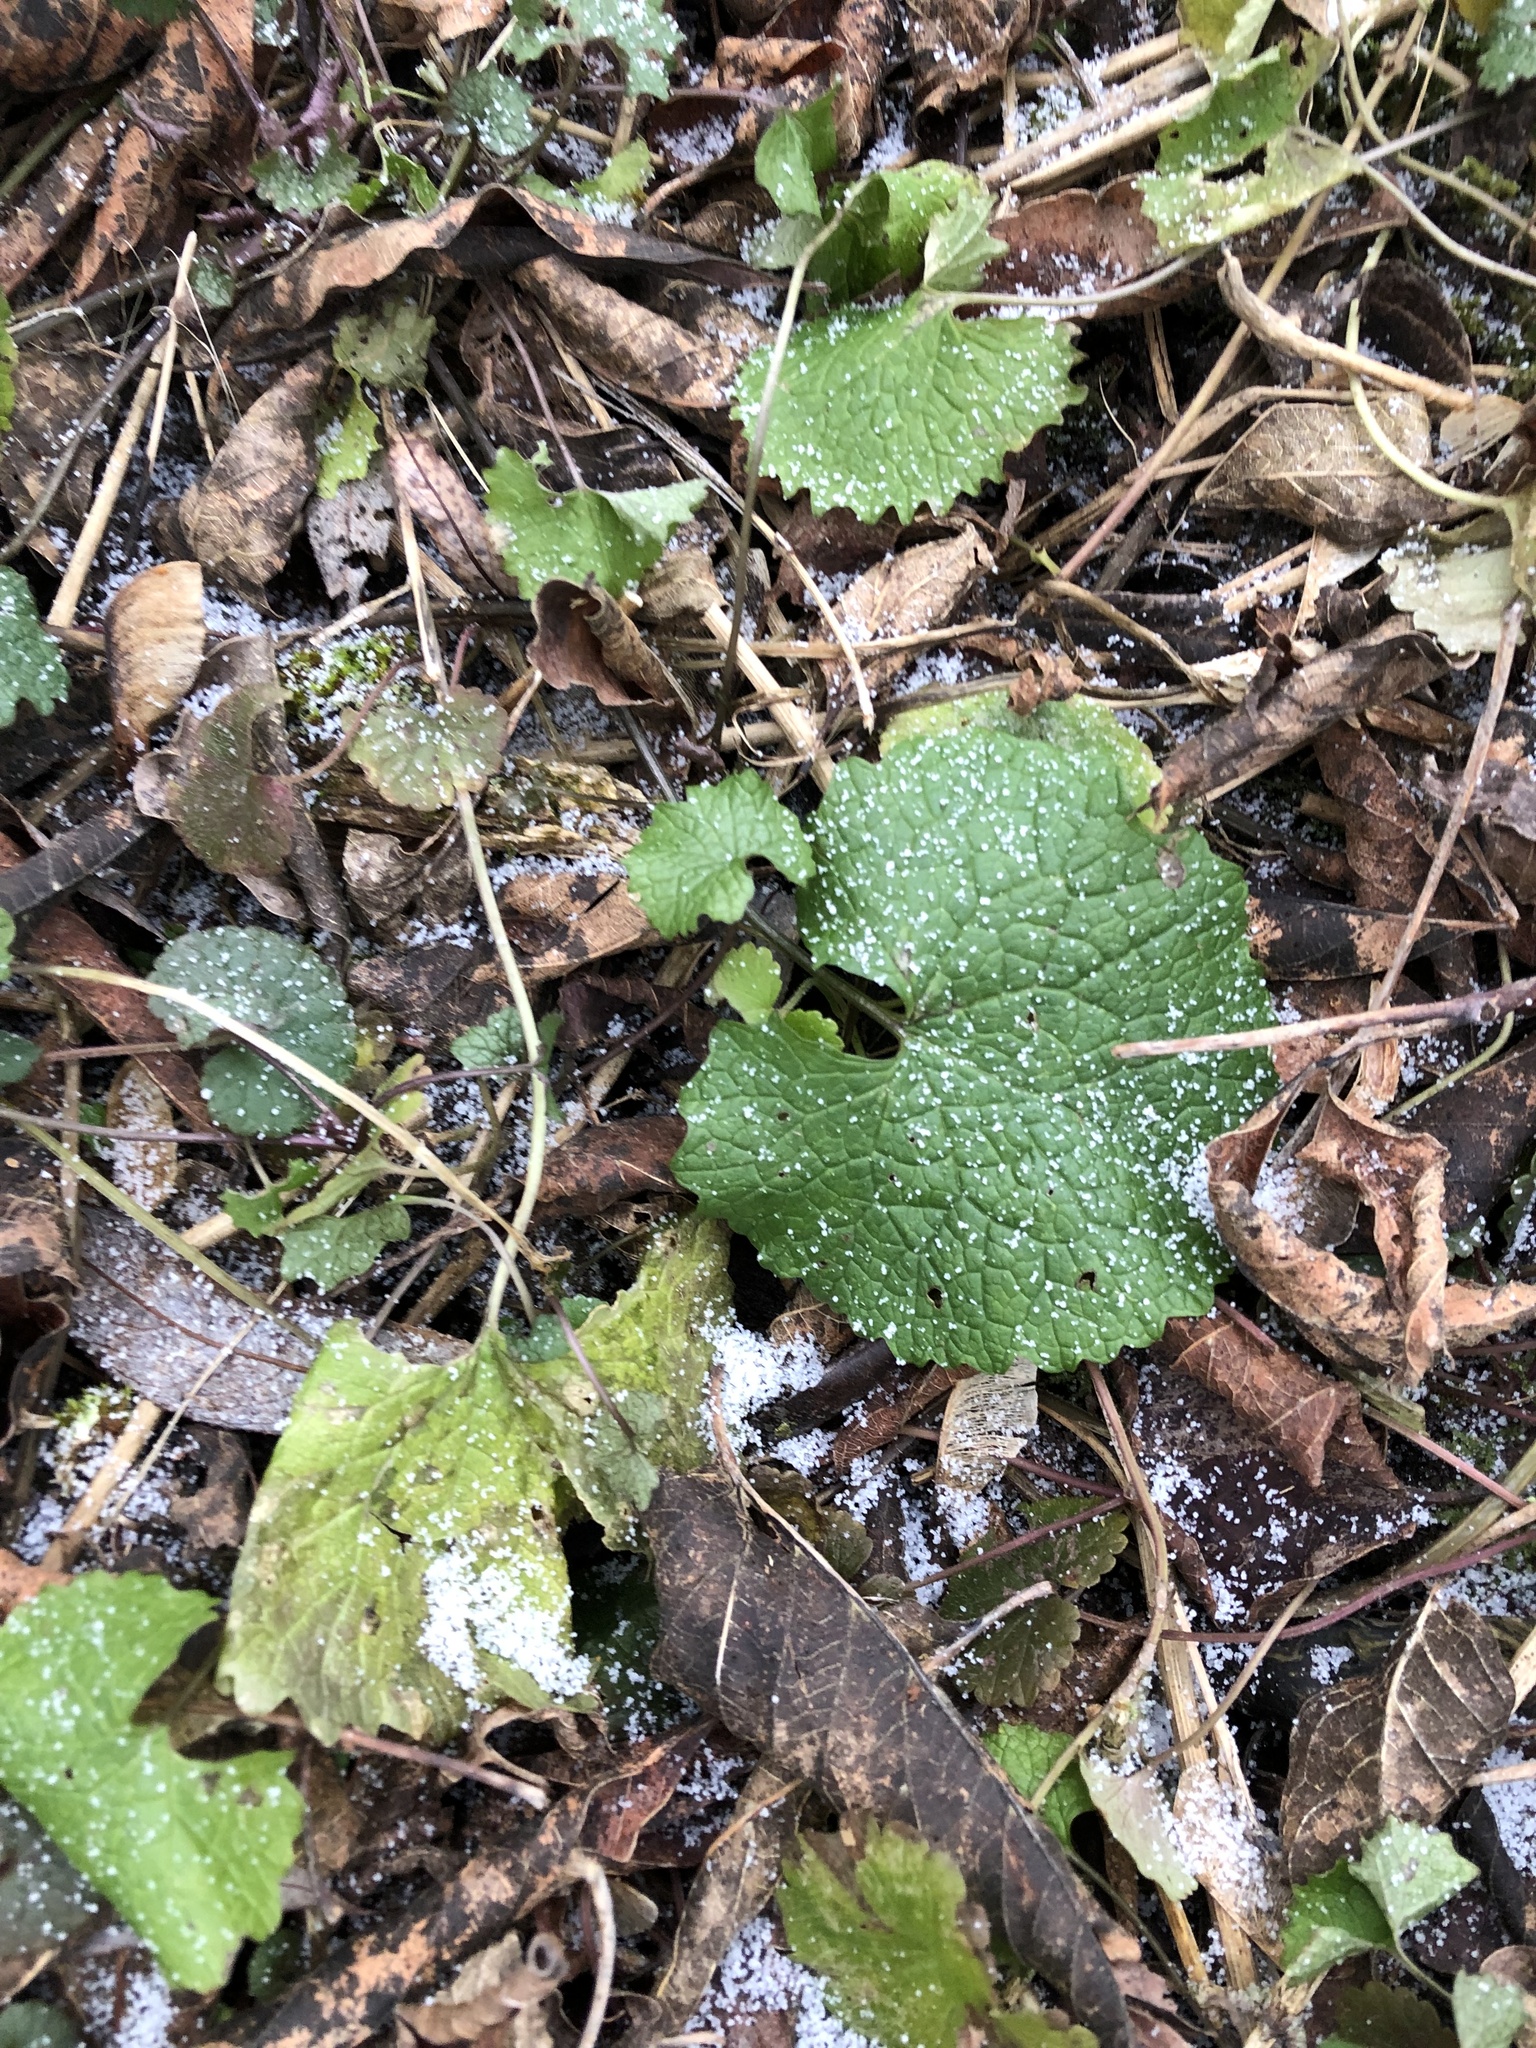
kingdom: Plantae
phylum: Tracheophyta
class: Magnoliopsida
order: Brassicales
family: Brassicaceae
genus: Alliaria
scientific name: Alliaria petiolata
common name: Garlic mustard
